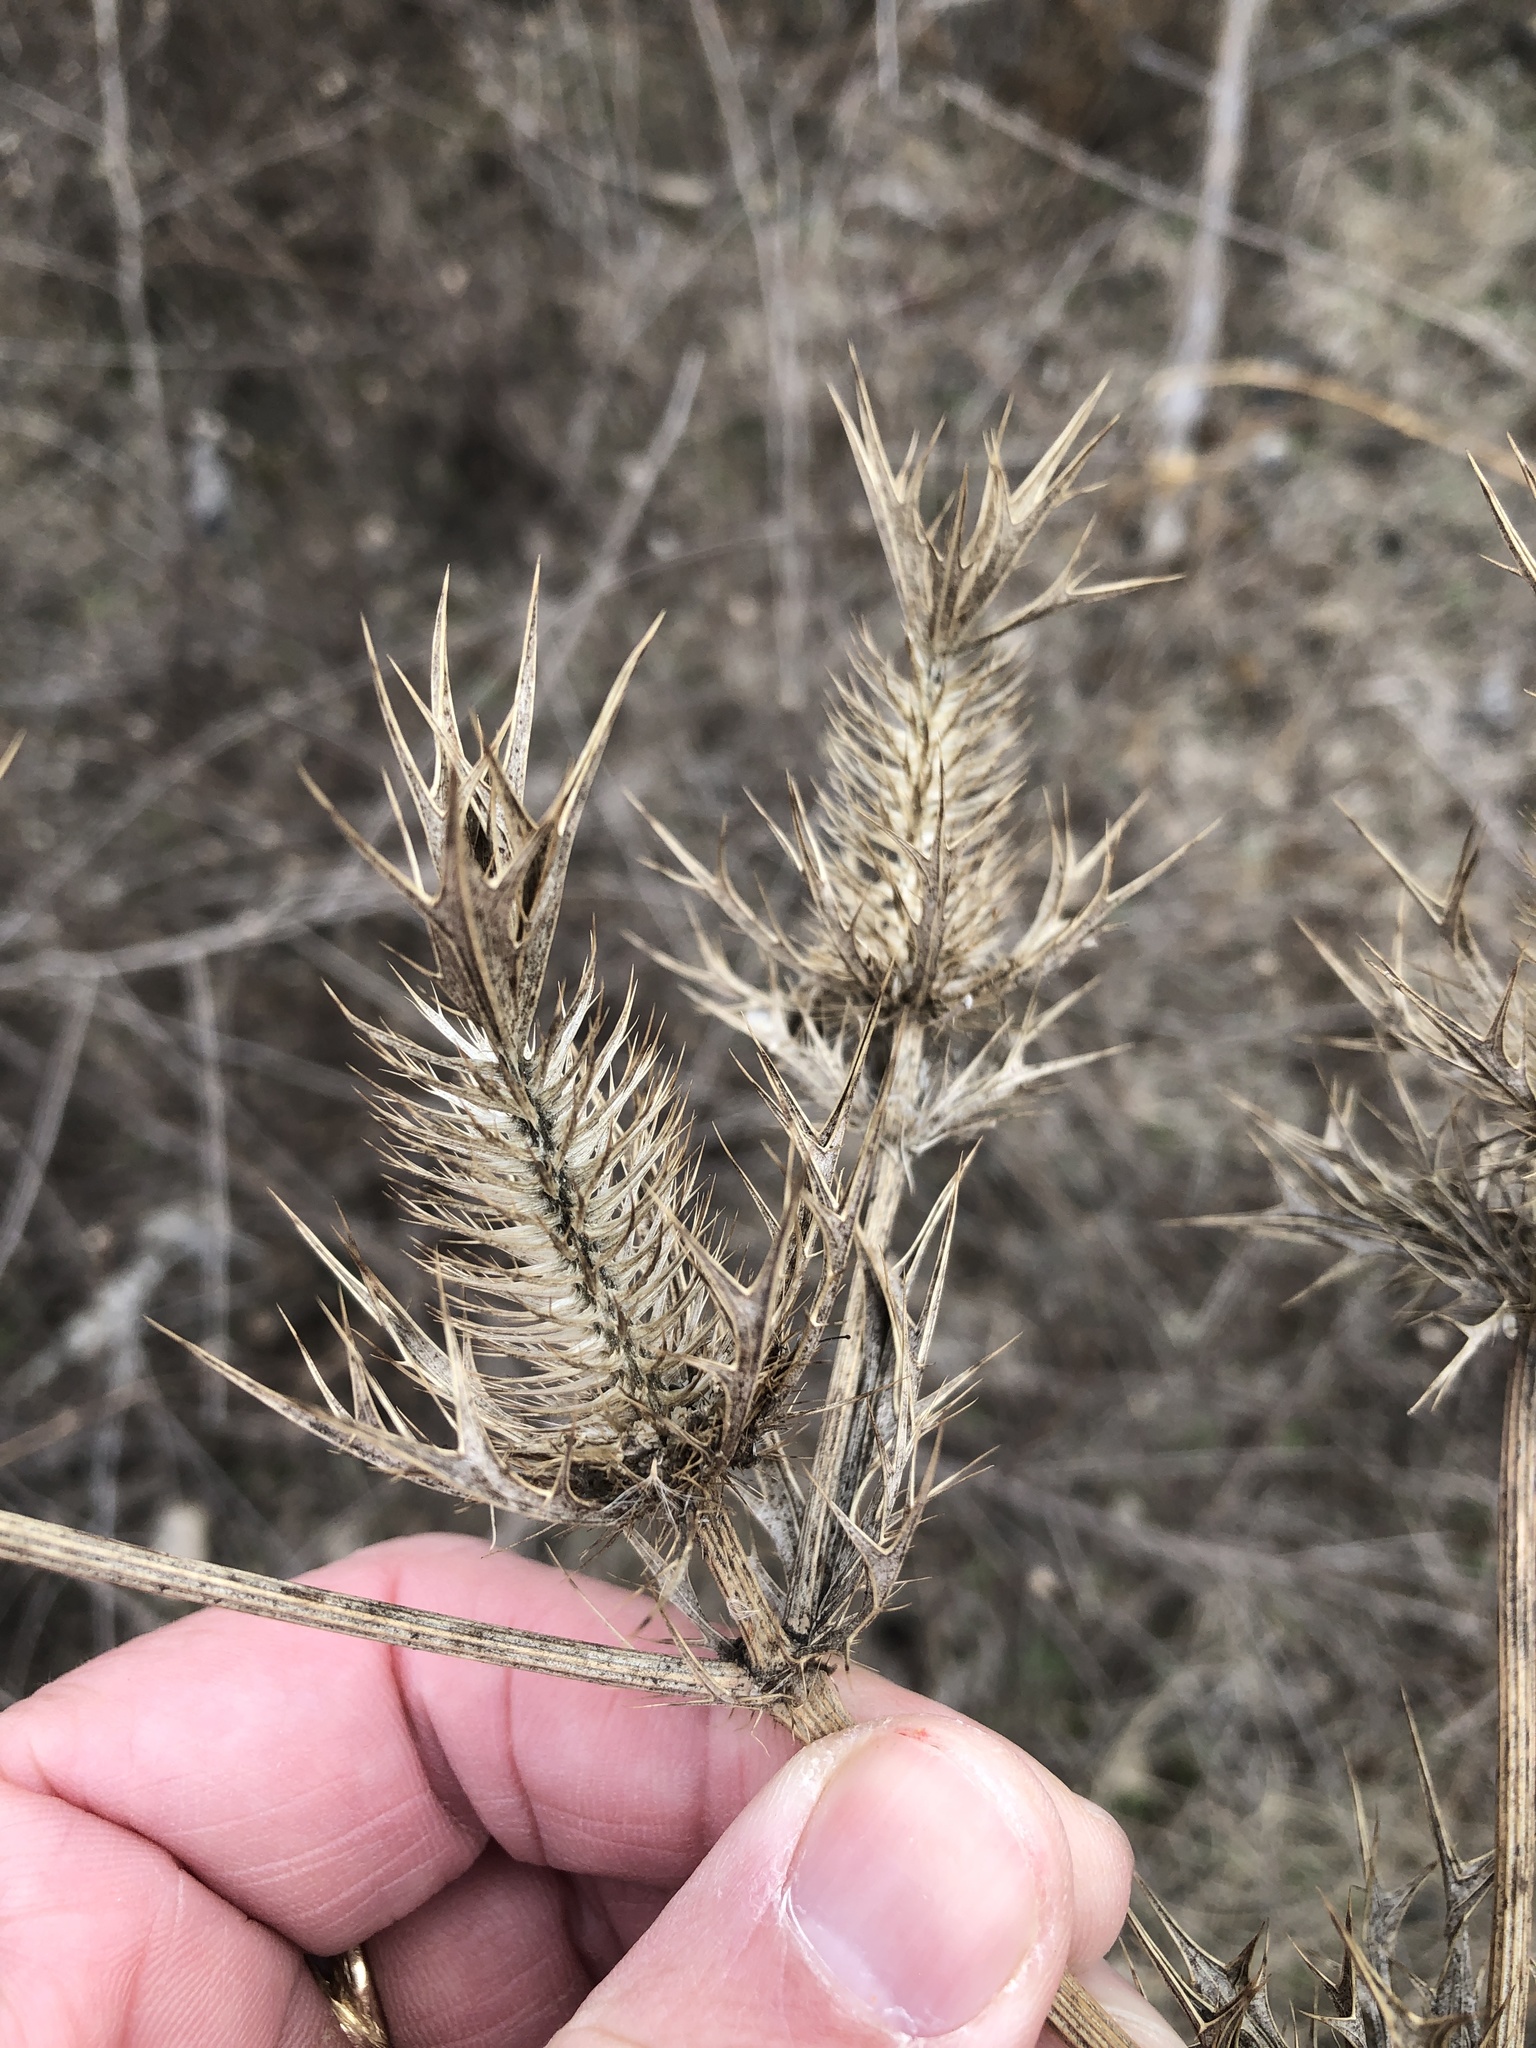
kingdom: Plantae
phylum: Tracheophyta
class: Magnoliopsida
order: Apiales
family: Apiaceae
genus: Eryngium
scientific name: Eryngium leavenworthii
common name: Leavenworth's eryngo
